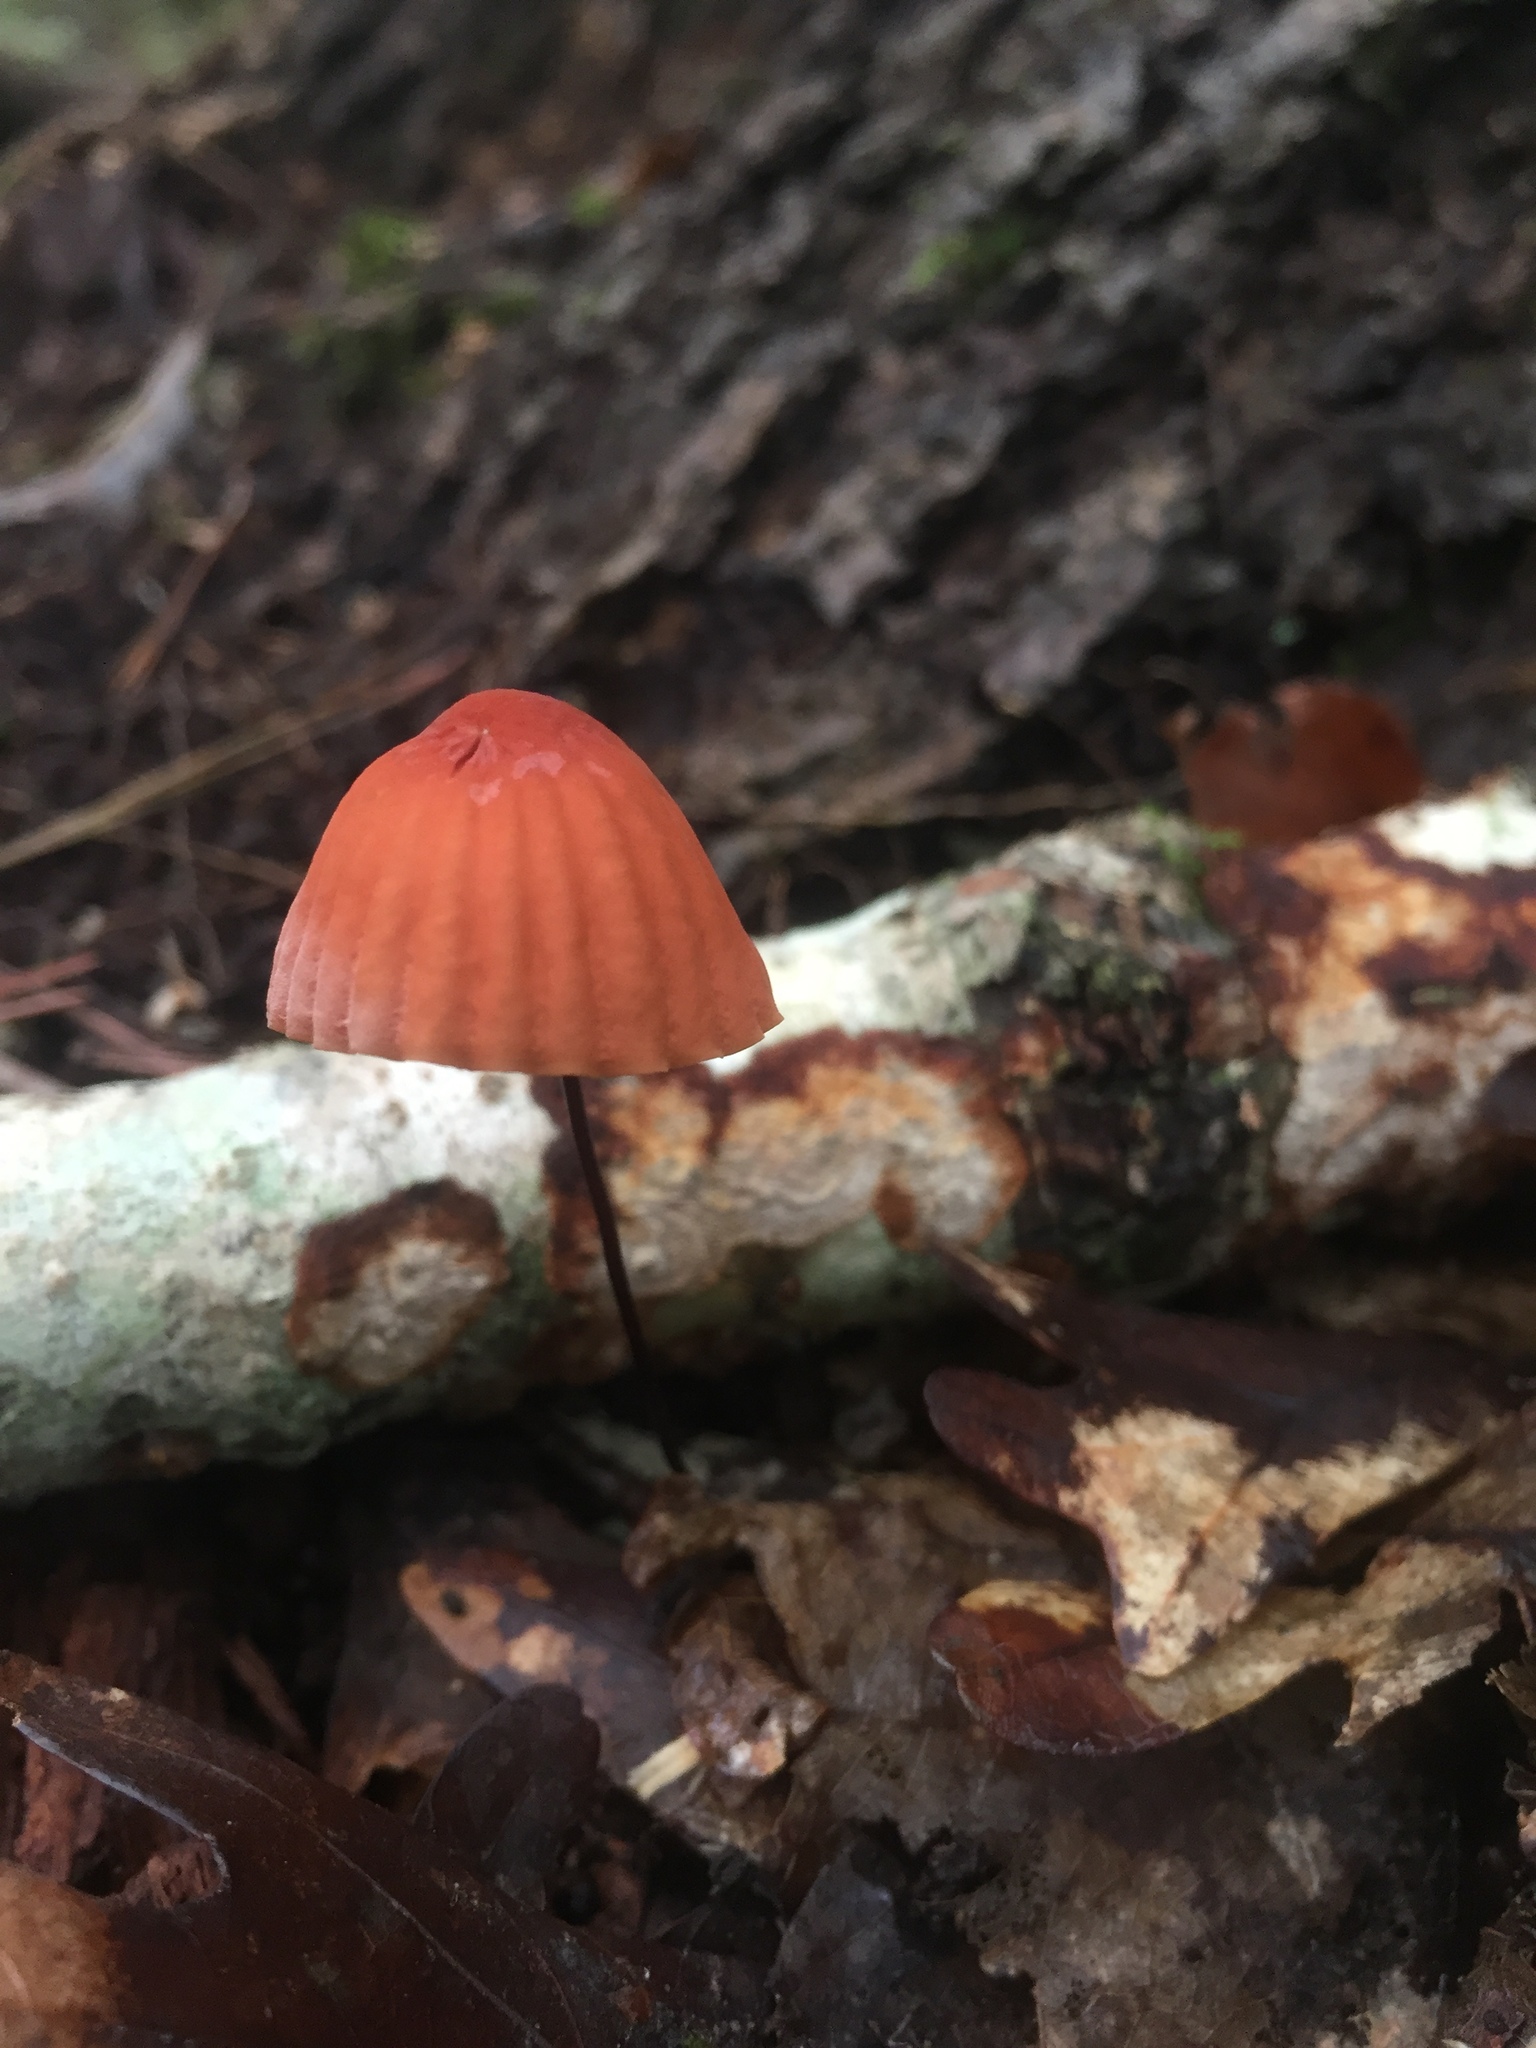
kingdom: Fungi
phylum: Basidiomycota
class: Agaricomycetes
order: Agaricales
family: Marasmiaceae
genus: Marasmius
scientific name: Marasmius siccus
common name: Orange pinwheel
